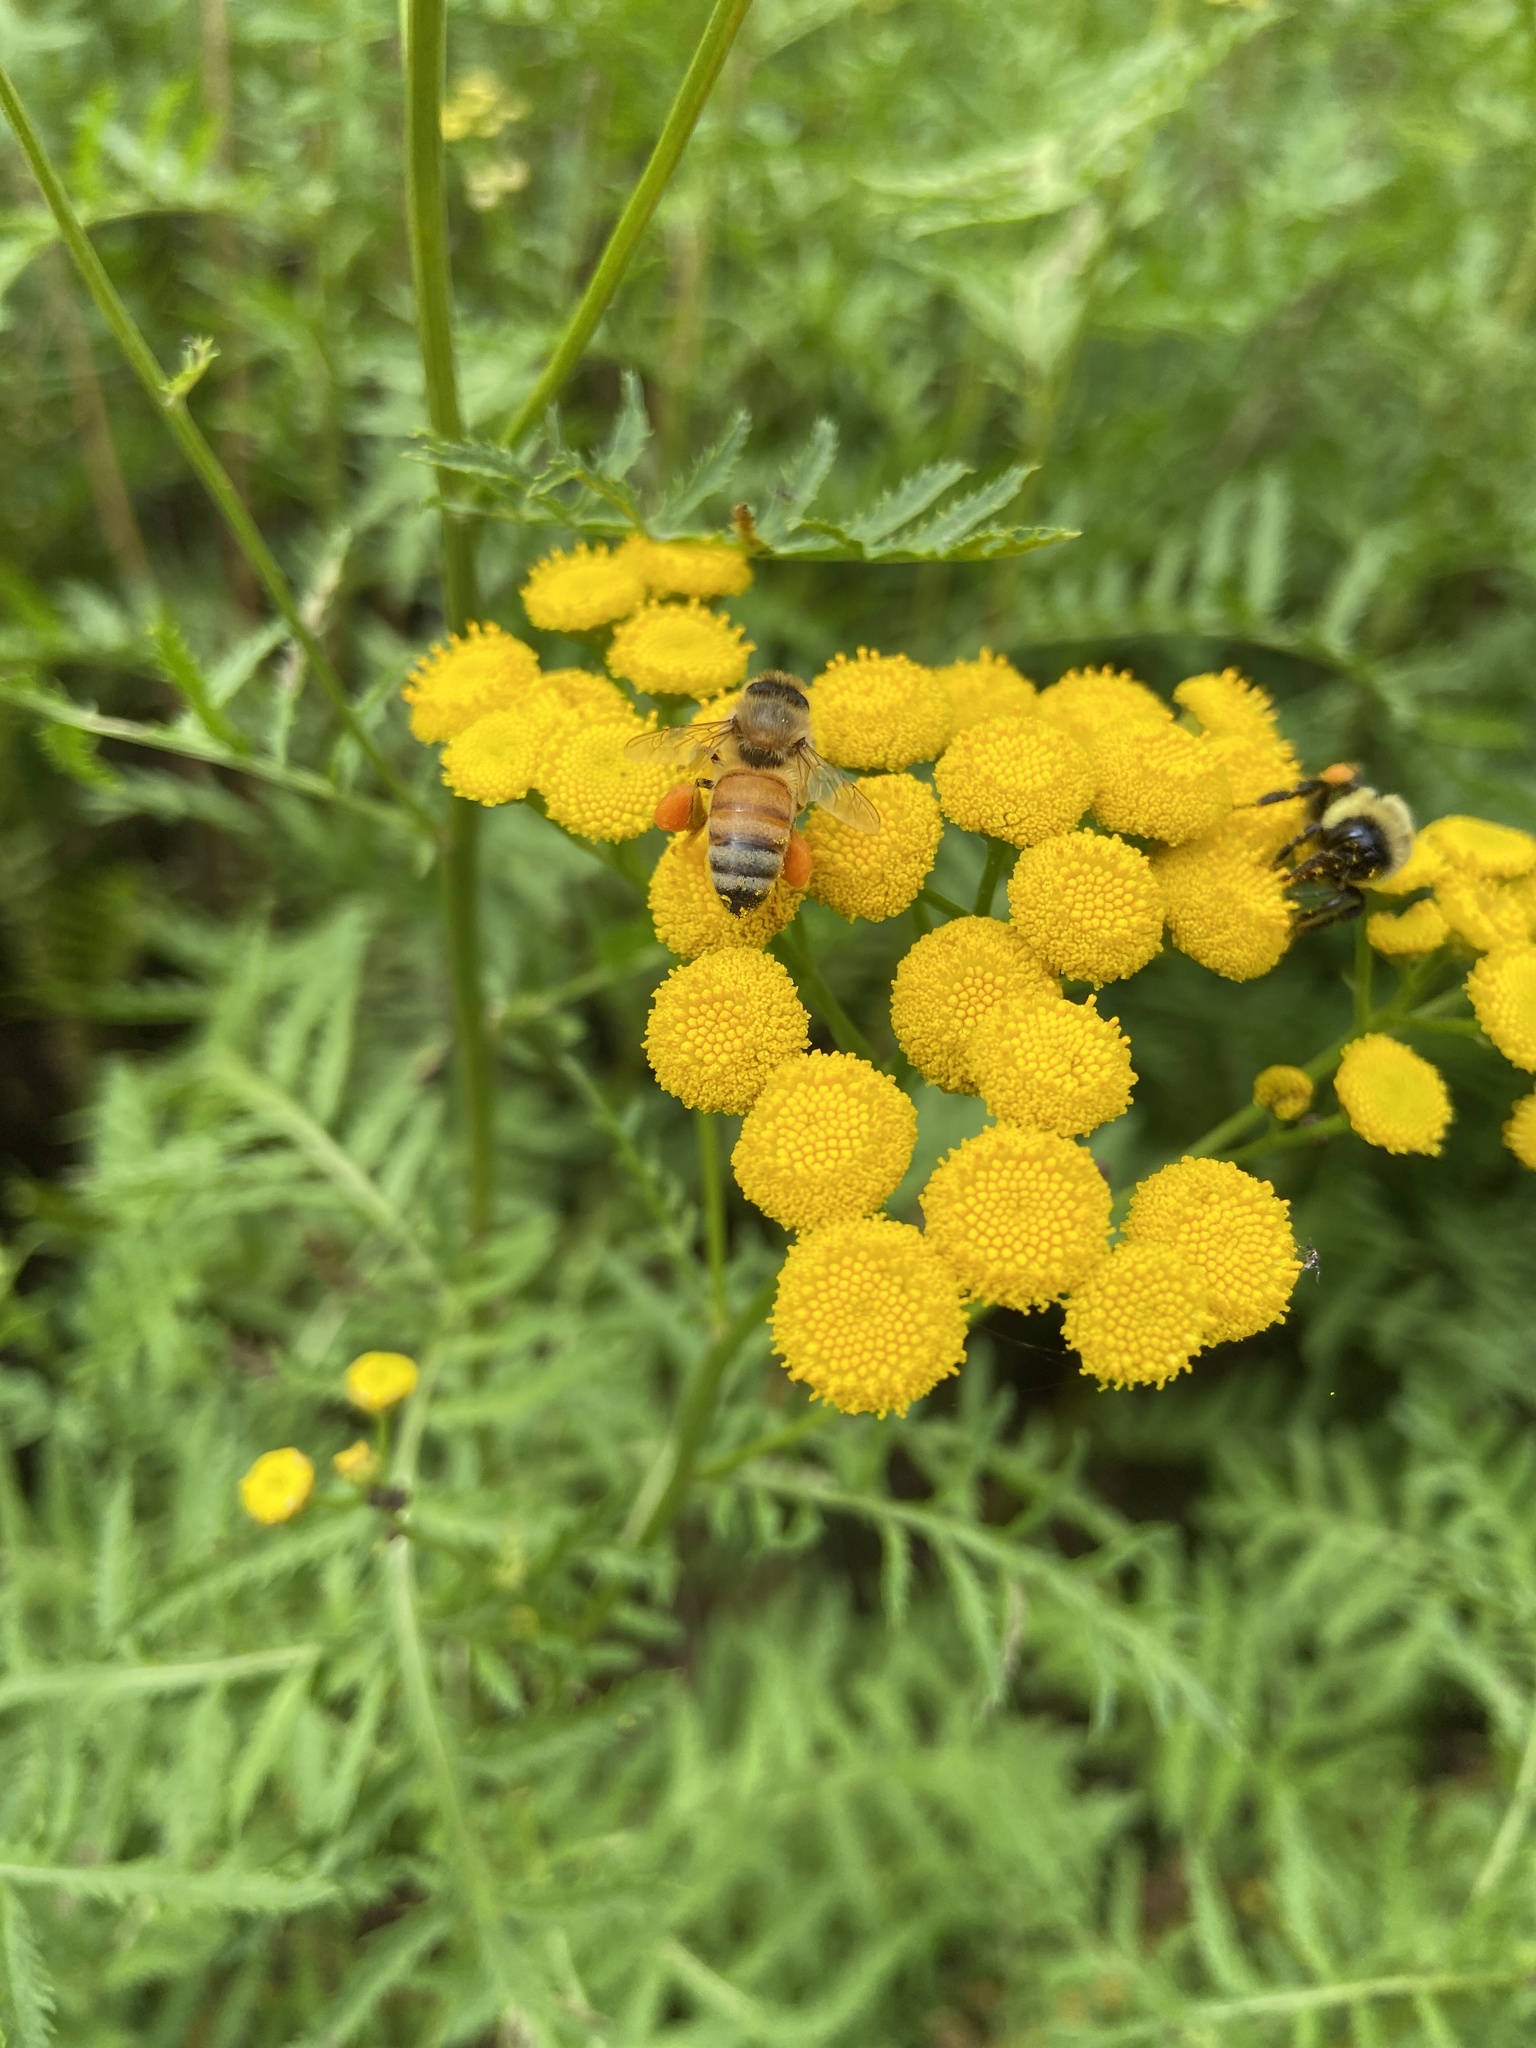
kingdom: Animalia
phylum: Arthropoda
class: Insecta
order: Hymenoptera
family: Apidae
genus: Apis
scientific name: Apis mellifera
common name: Honey bee
